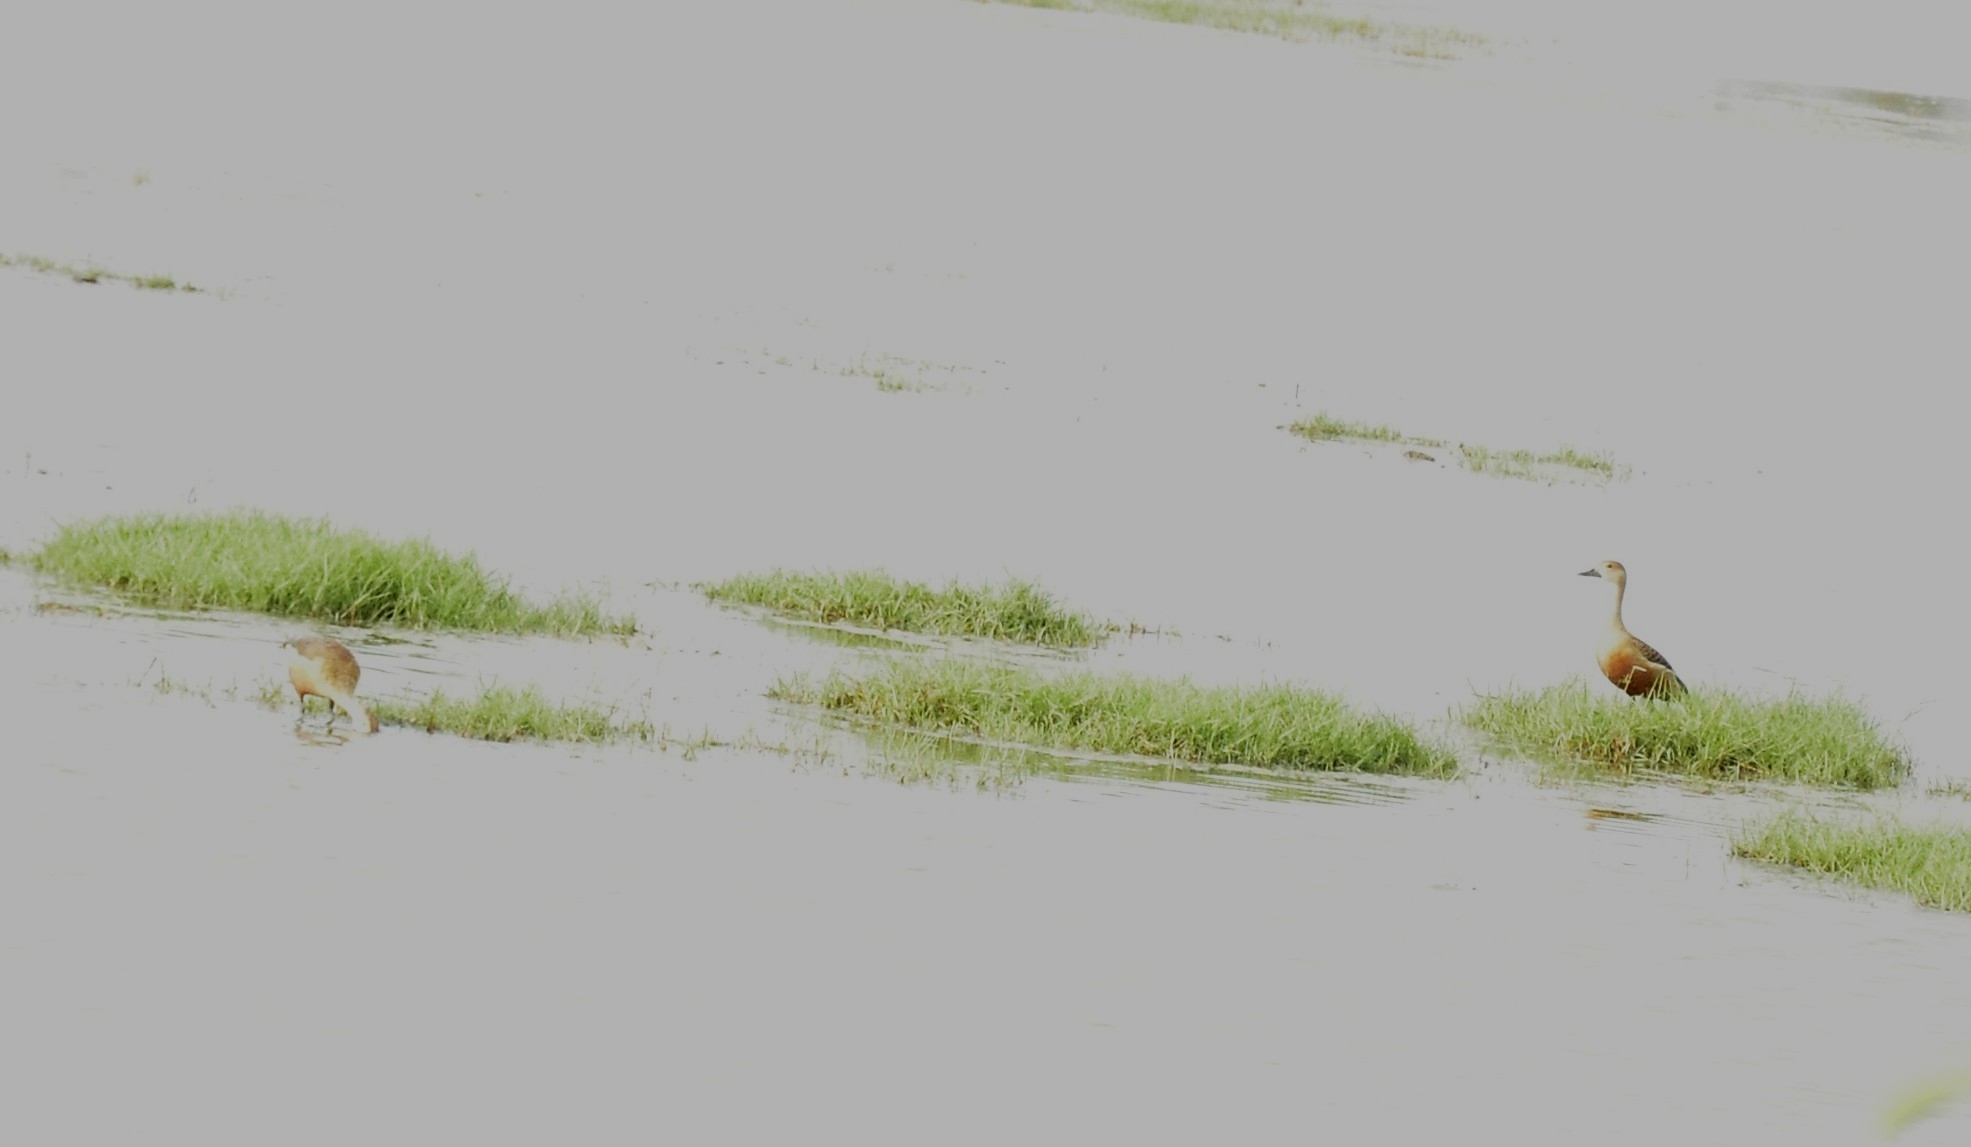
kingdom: Animalia
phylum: Chordata
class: Aves
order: Anseriformes
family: Anatidae
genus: Dendrocygna
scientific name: Dendrocygna javanica
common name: Lesser whistling-duck
